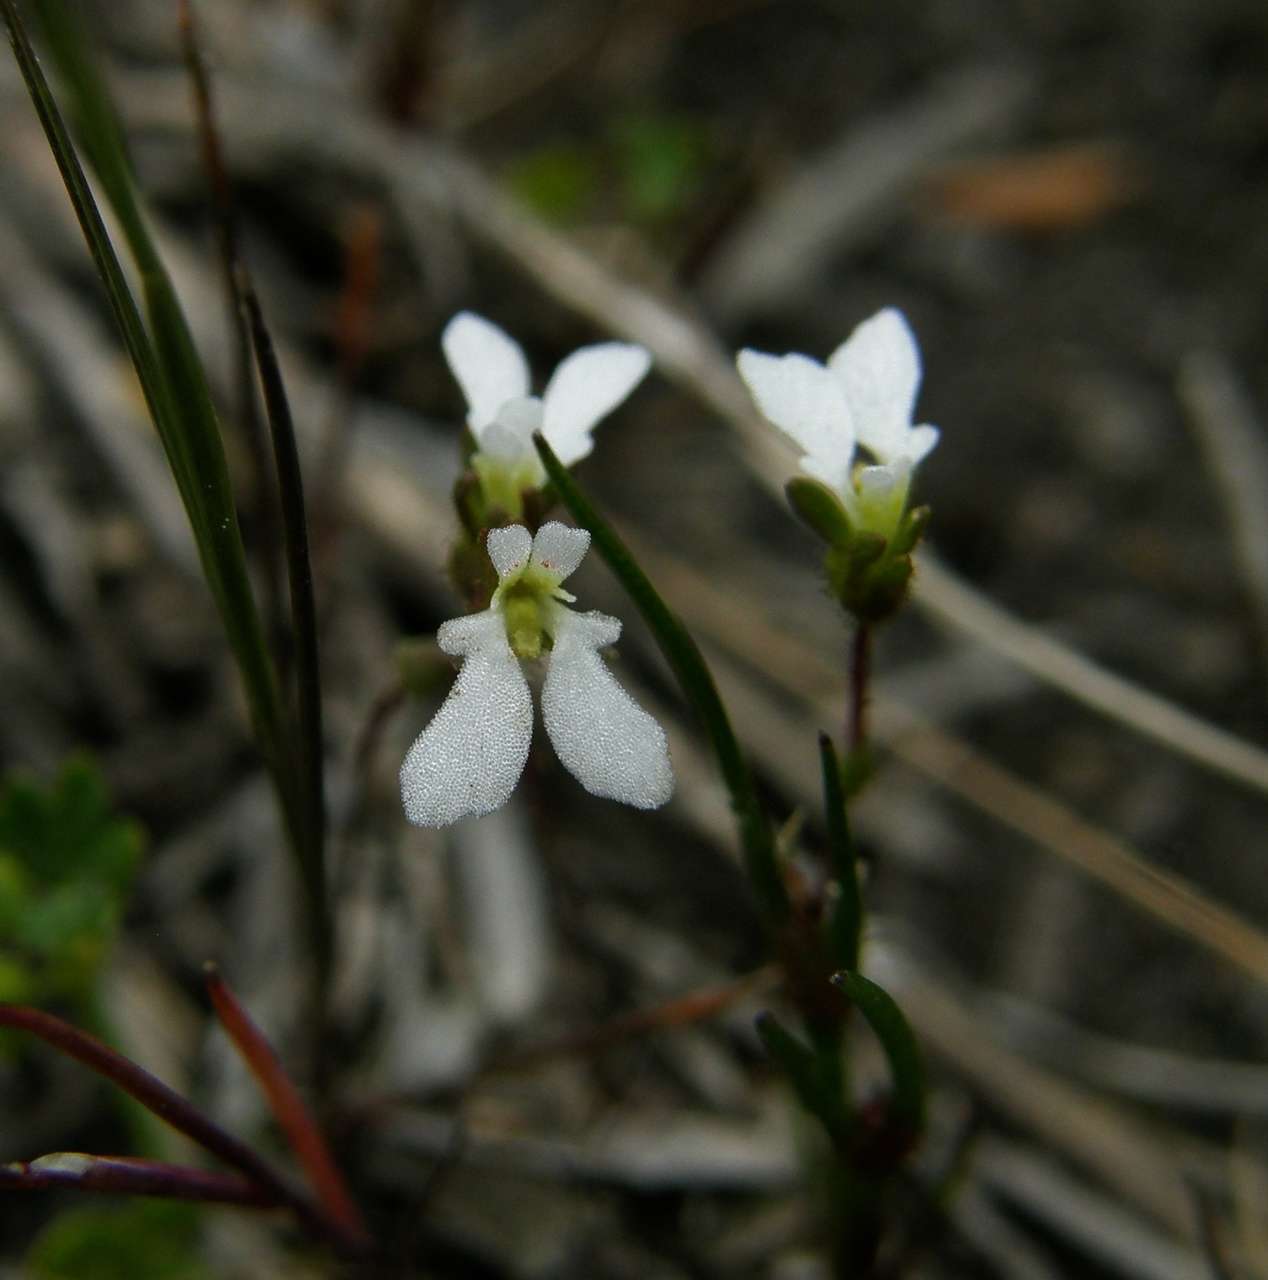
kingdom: Plantae
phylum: Tracheophyta
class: Magnoliopsida
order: Asterales
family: Stylidiaceae
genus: Stylidium
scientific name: Stylidium perpusillum
